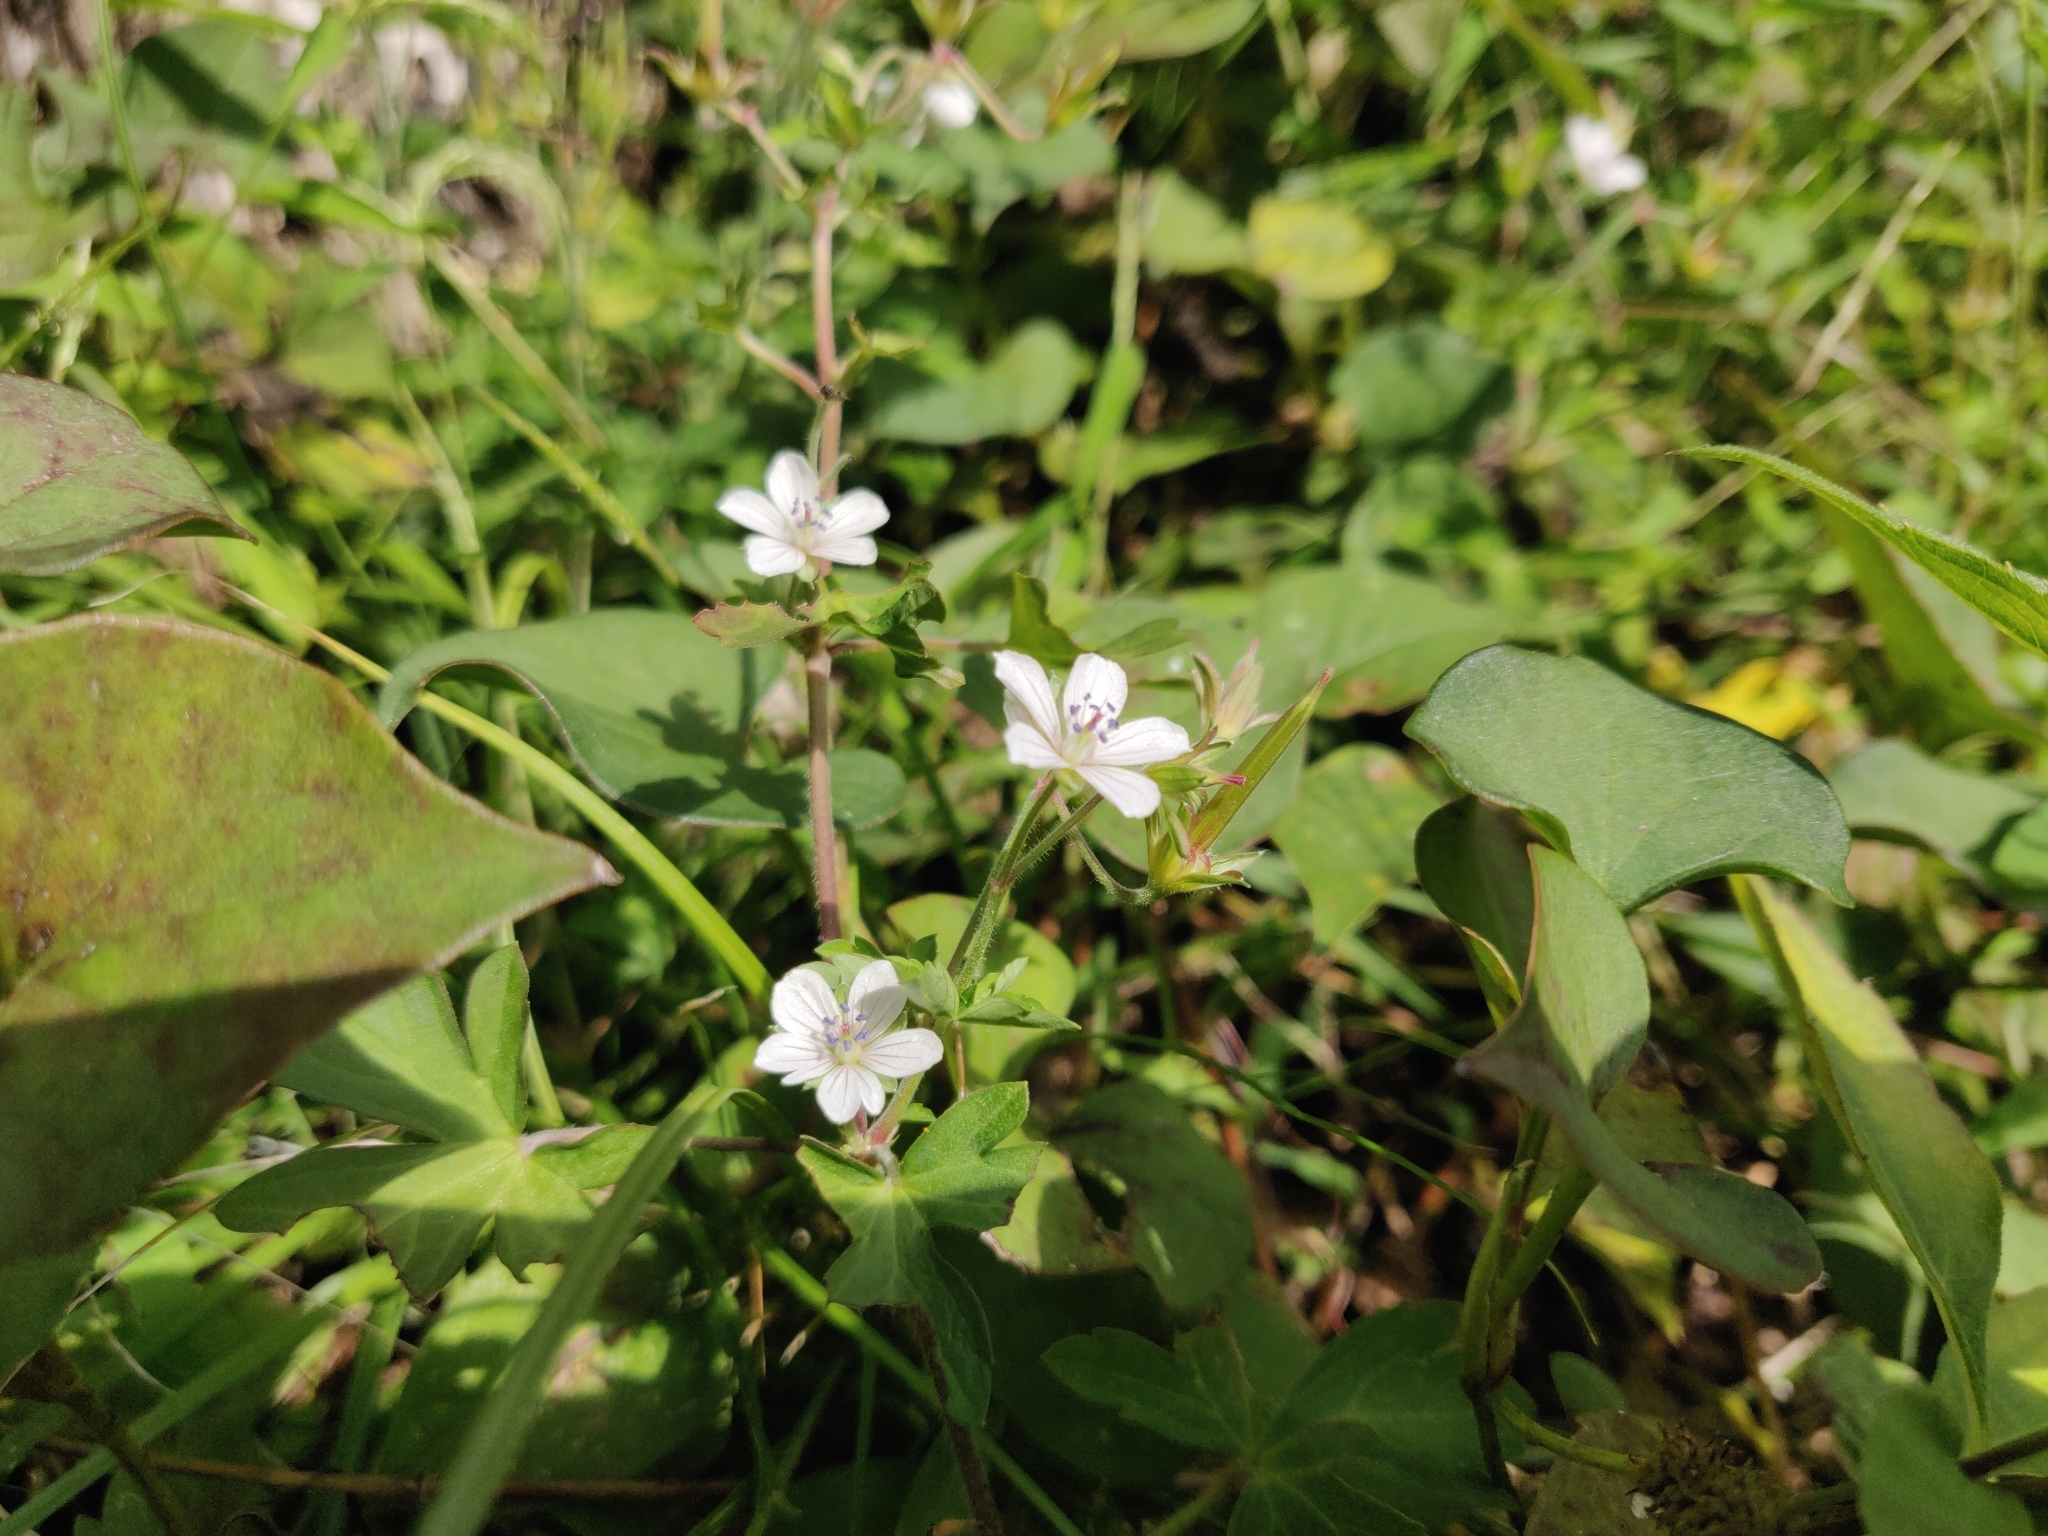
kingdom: Plantae
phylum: Tracheophyta
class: Magnoliopsida
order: Geraniales
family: Geraniaceae
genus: Geranium
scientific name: Geranium thunbergii
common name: Dewdrop crane's-bill
